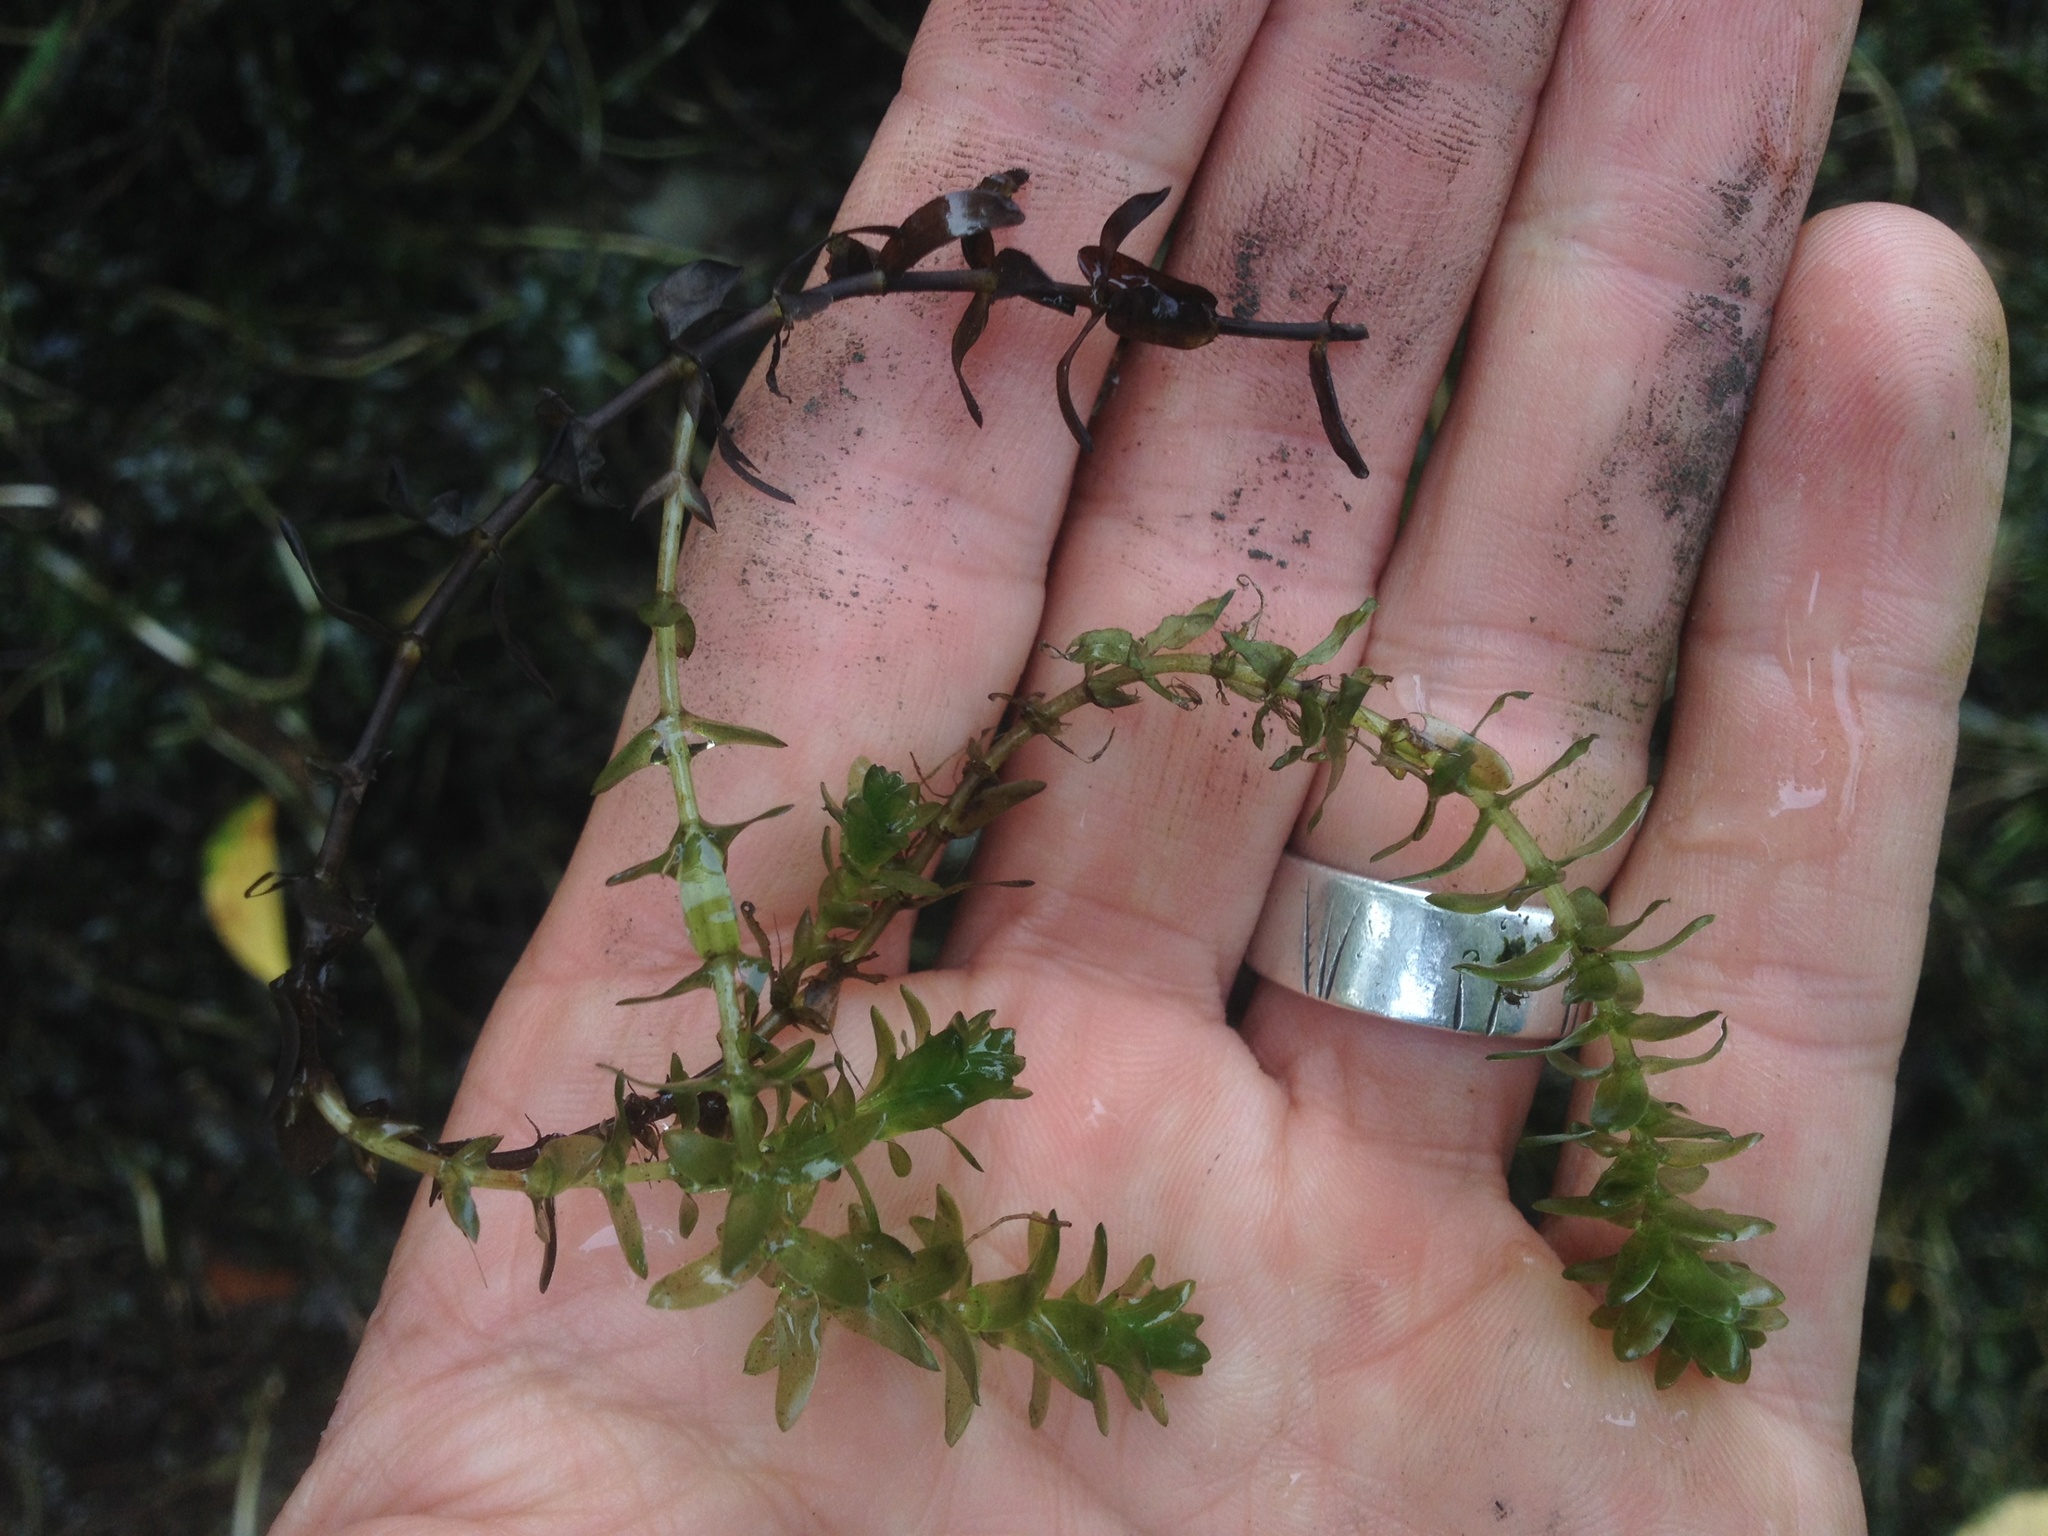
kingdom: Plantae
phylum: Tracheophyta
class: Liliopsida
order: Alismatales
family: Hydrocharitaceae
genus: Elodea
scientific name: Elodea canadensis
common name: Canadian waterweed
